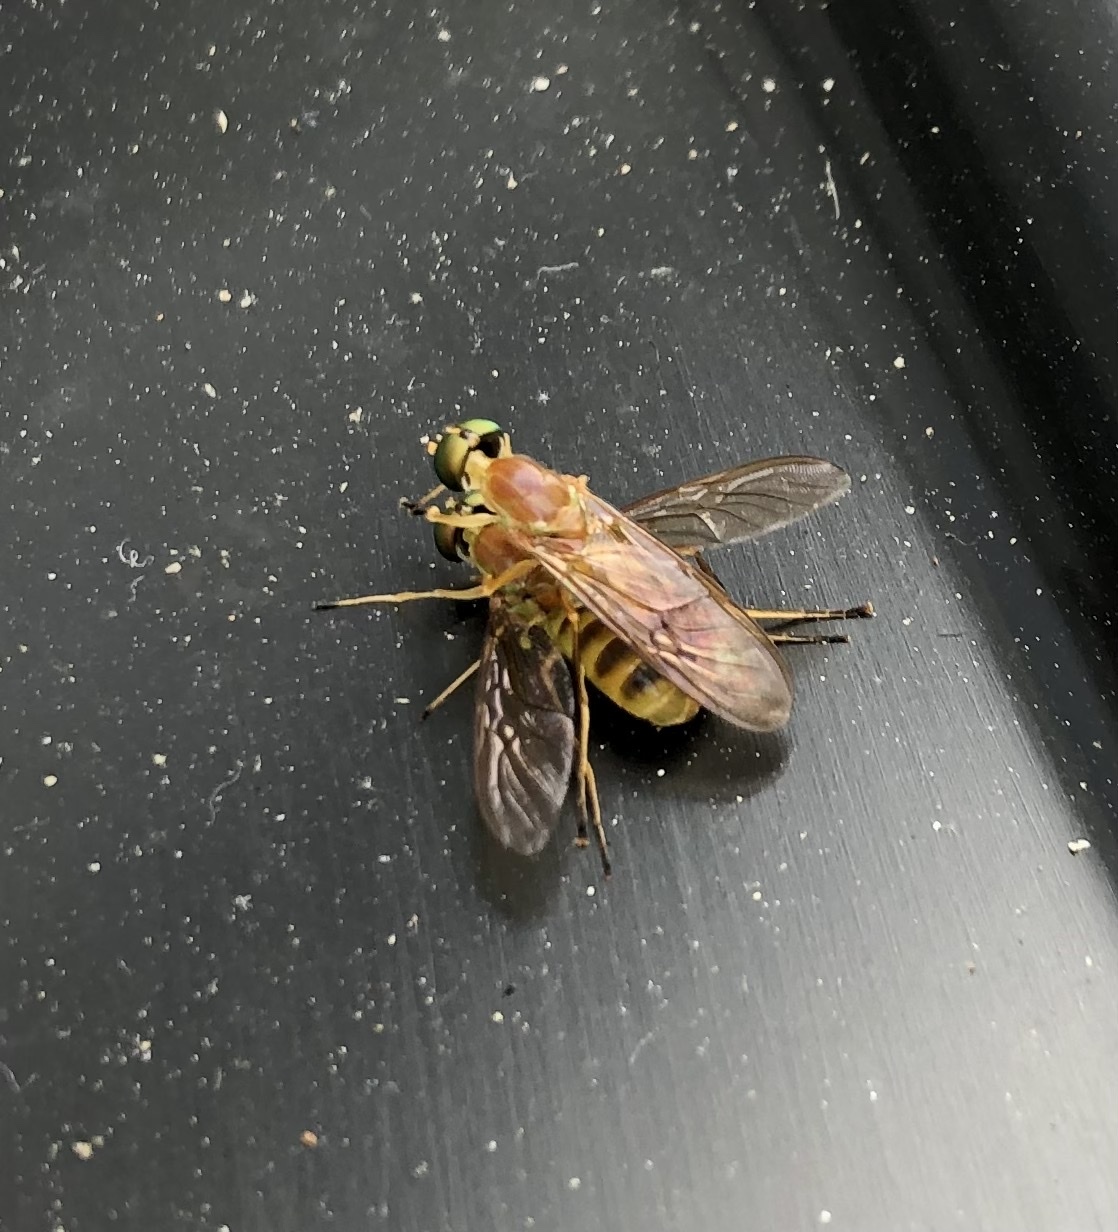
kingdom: Animalia
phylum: Arthropoda
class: Insecta
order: Diptera
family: Stratiomyidae
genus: Ptecticus
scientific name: Ptecticus trivittatus
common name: Compost fly
